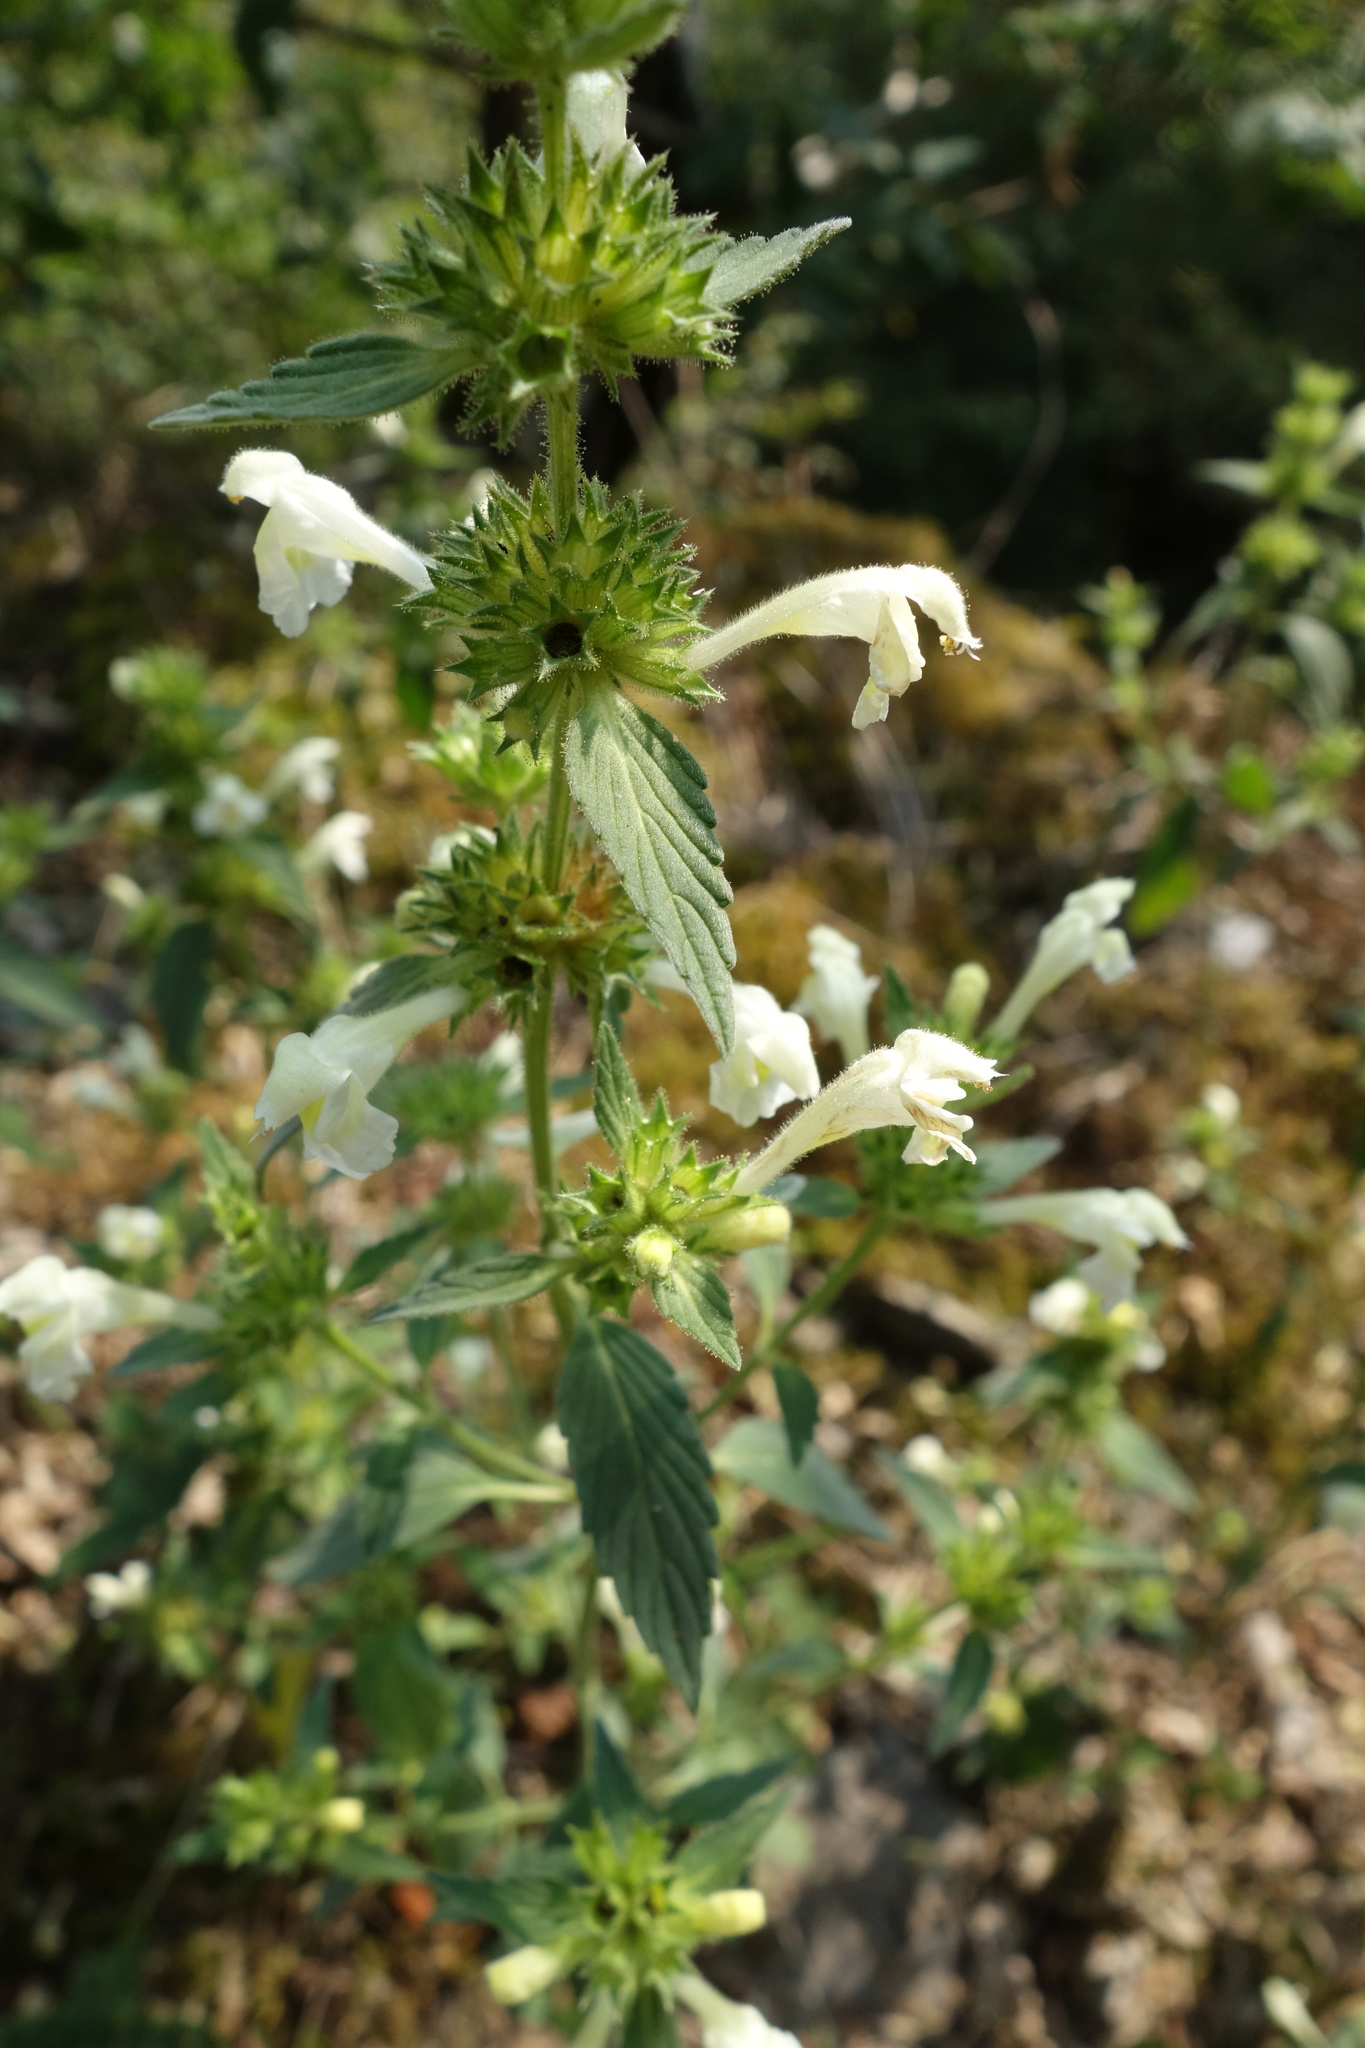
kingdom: Plantae
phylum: Tracheophyta
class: Magnoliopsida
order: Lamiales
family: Lamiaceae
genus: Galeopsis
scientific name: Galeopsis segetum
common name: Downy hemp-nettle
